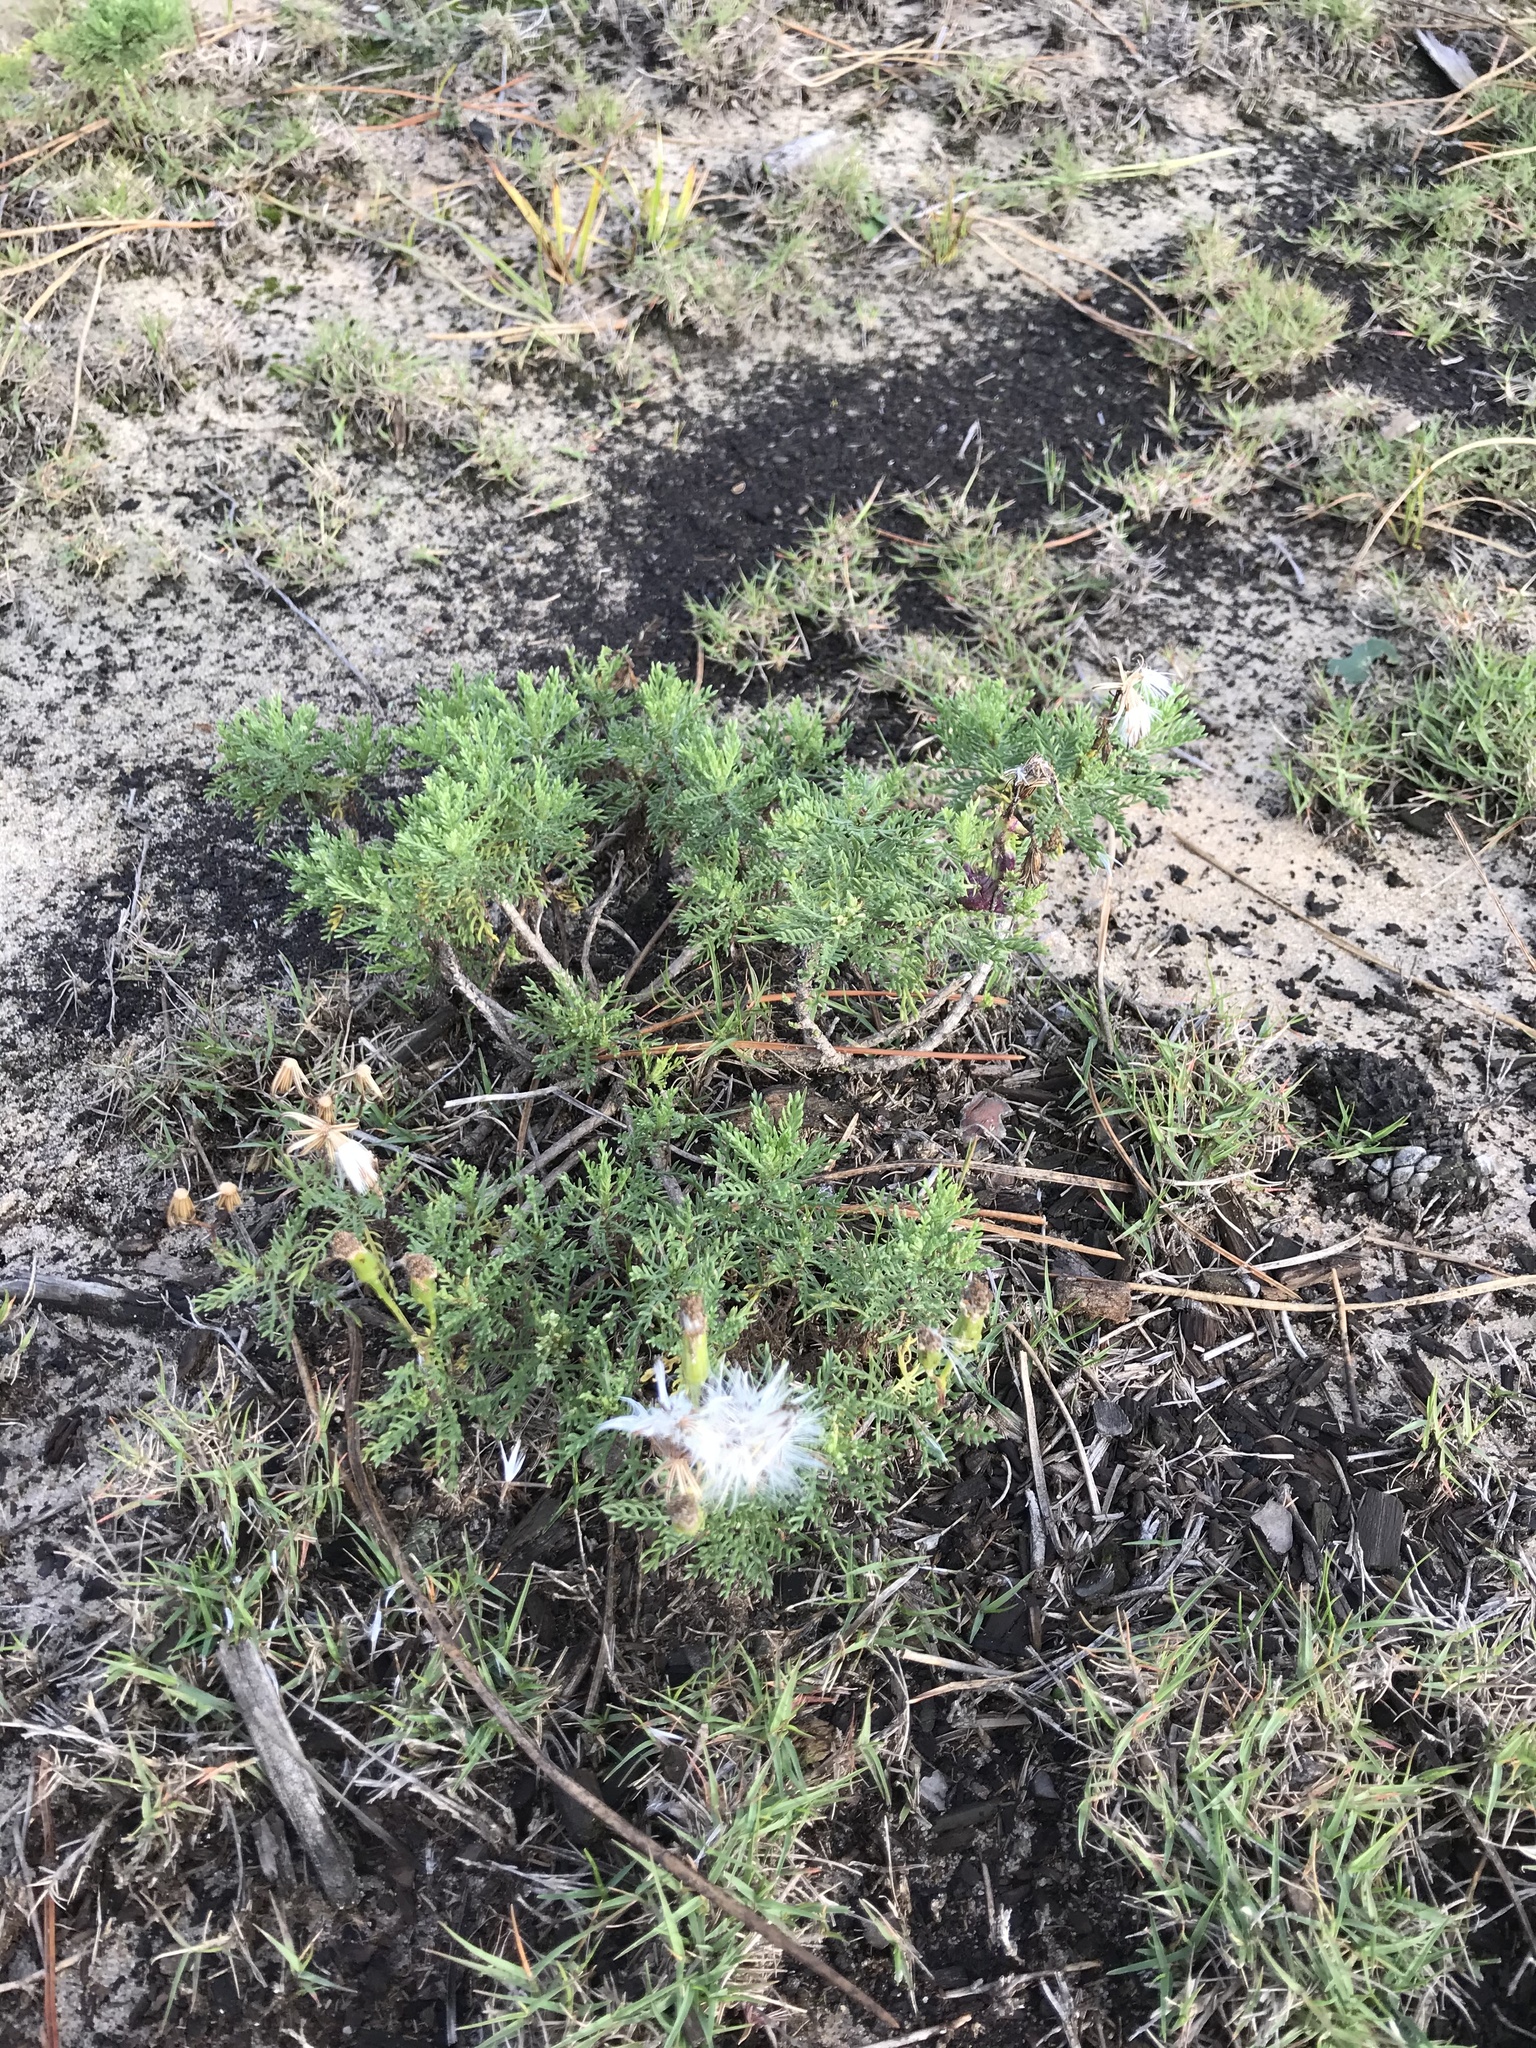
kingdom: Plantae
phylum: Tracheophyta
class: Magnoliopsida
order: Asterales
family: Asteraceae
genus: Senecio
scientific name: Senecio platensis
